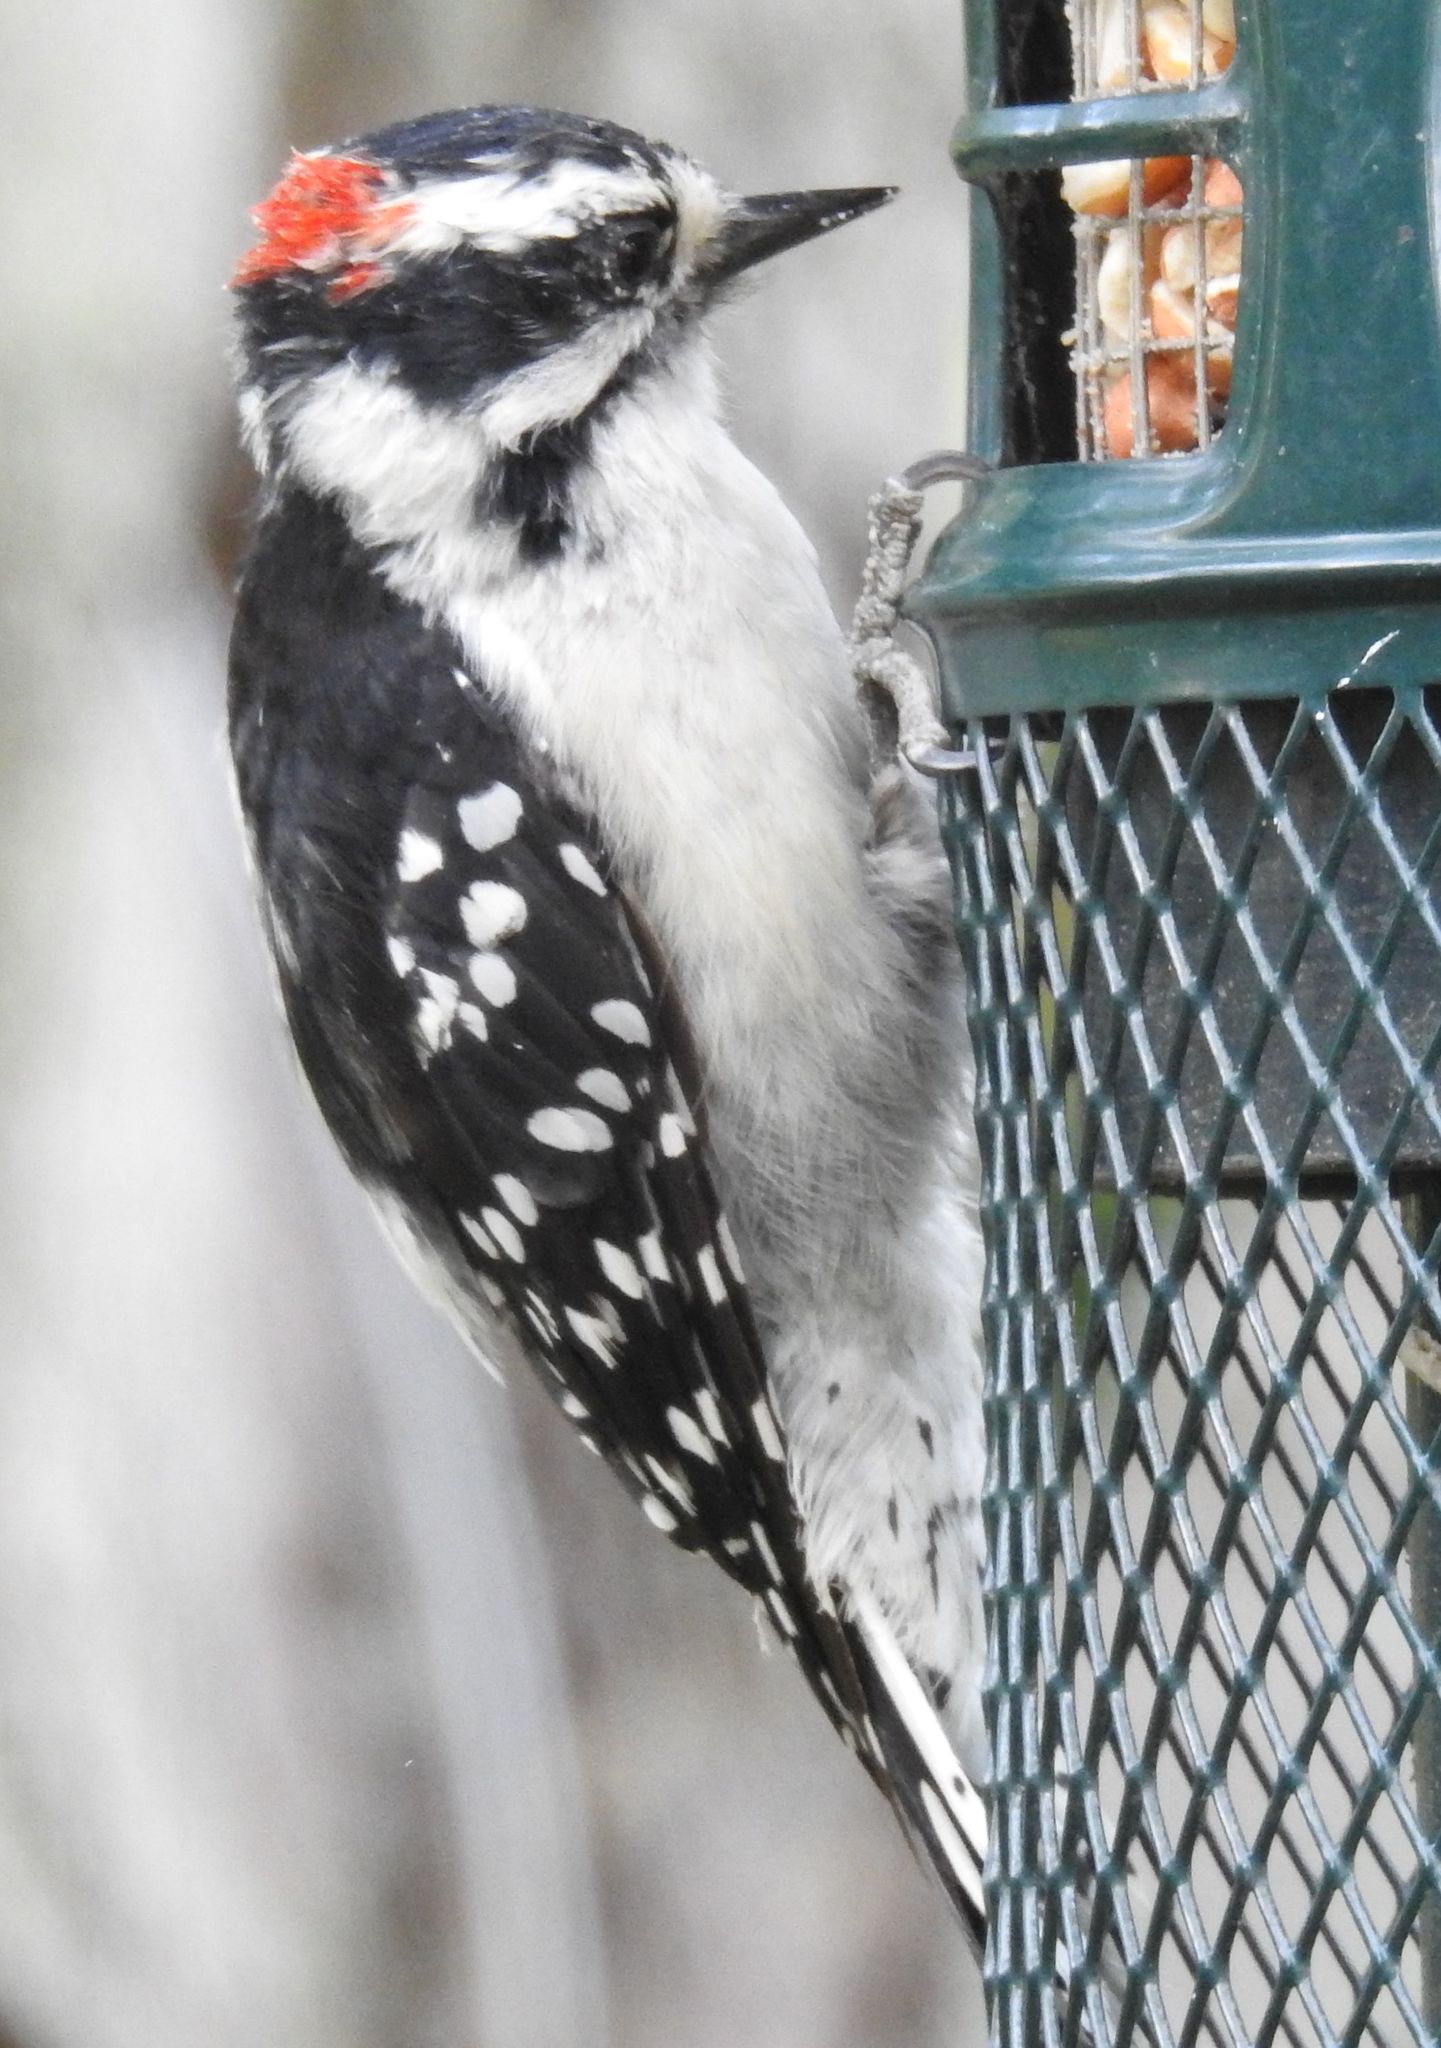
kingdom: Animalia
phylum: Chordata
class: Aves
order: Piciformes
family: Picidae
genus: Dryobates
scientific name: Dryobates pubescens
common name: Downy woodpecker
